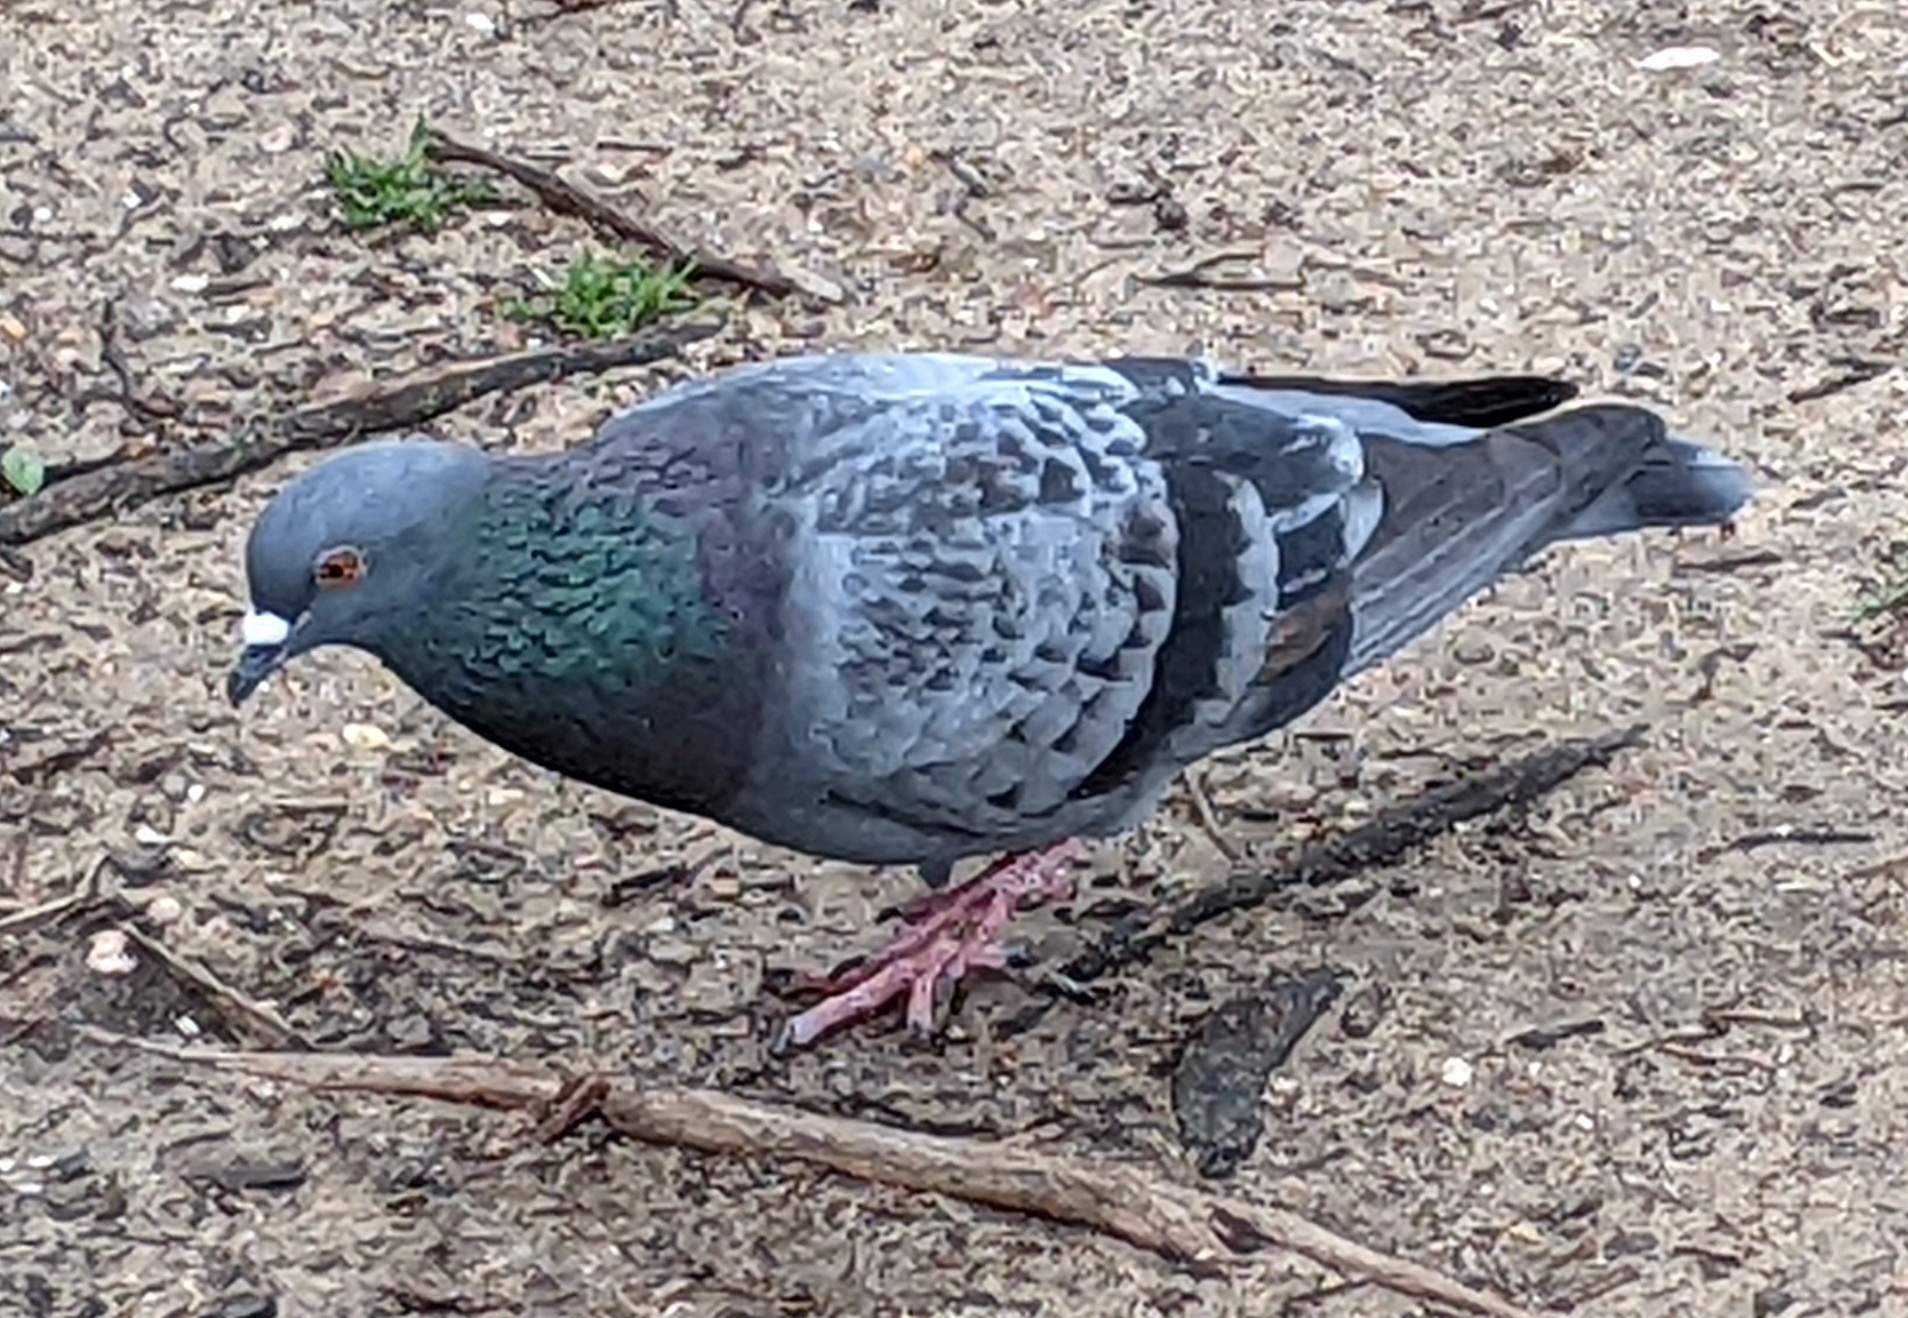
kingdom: Animalia
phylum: Chordata
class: Aves
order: Columbiformes
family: Columbidae
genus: Columba
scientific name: Columba livia
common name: Rock pigeon
